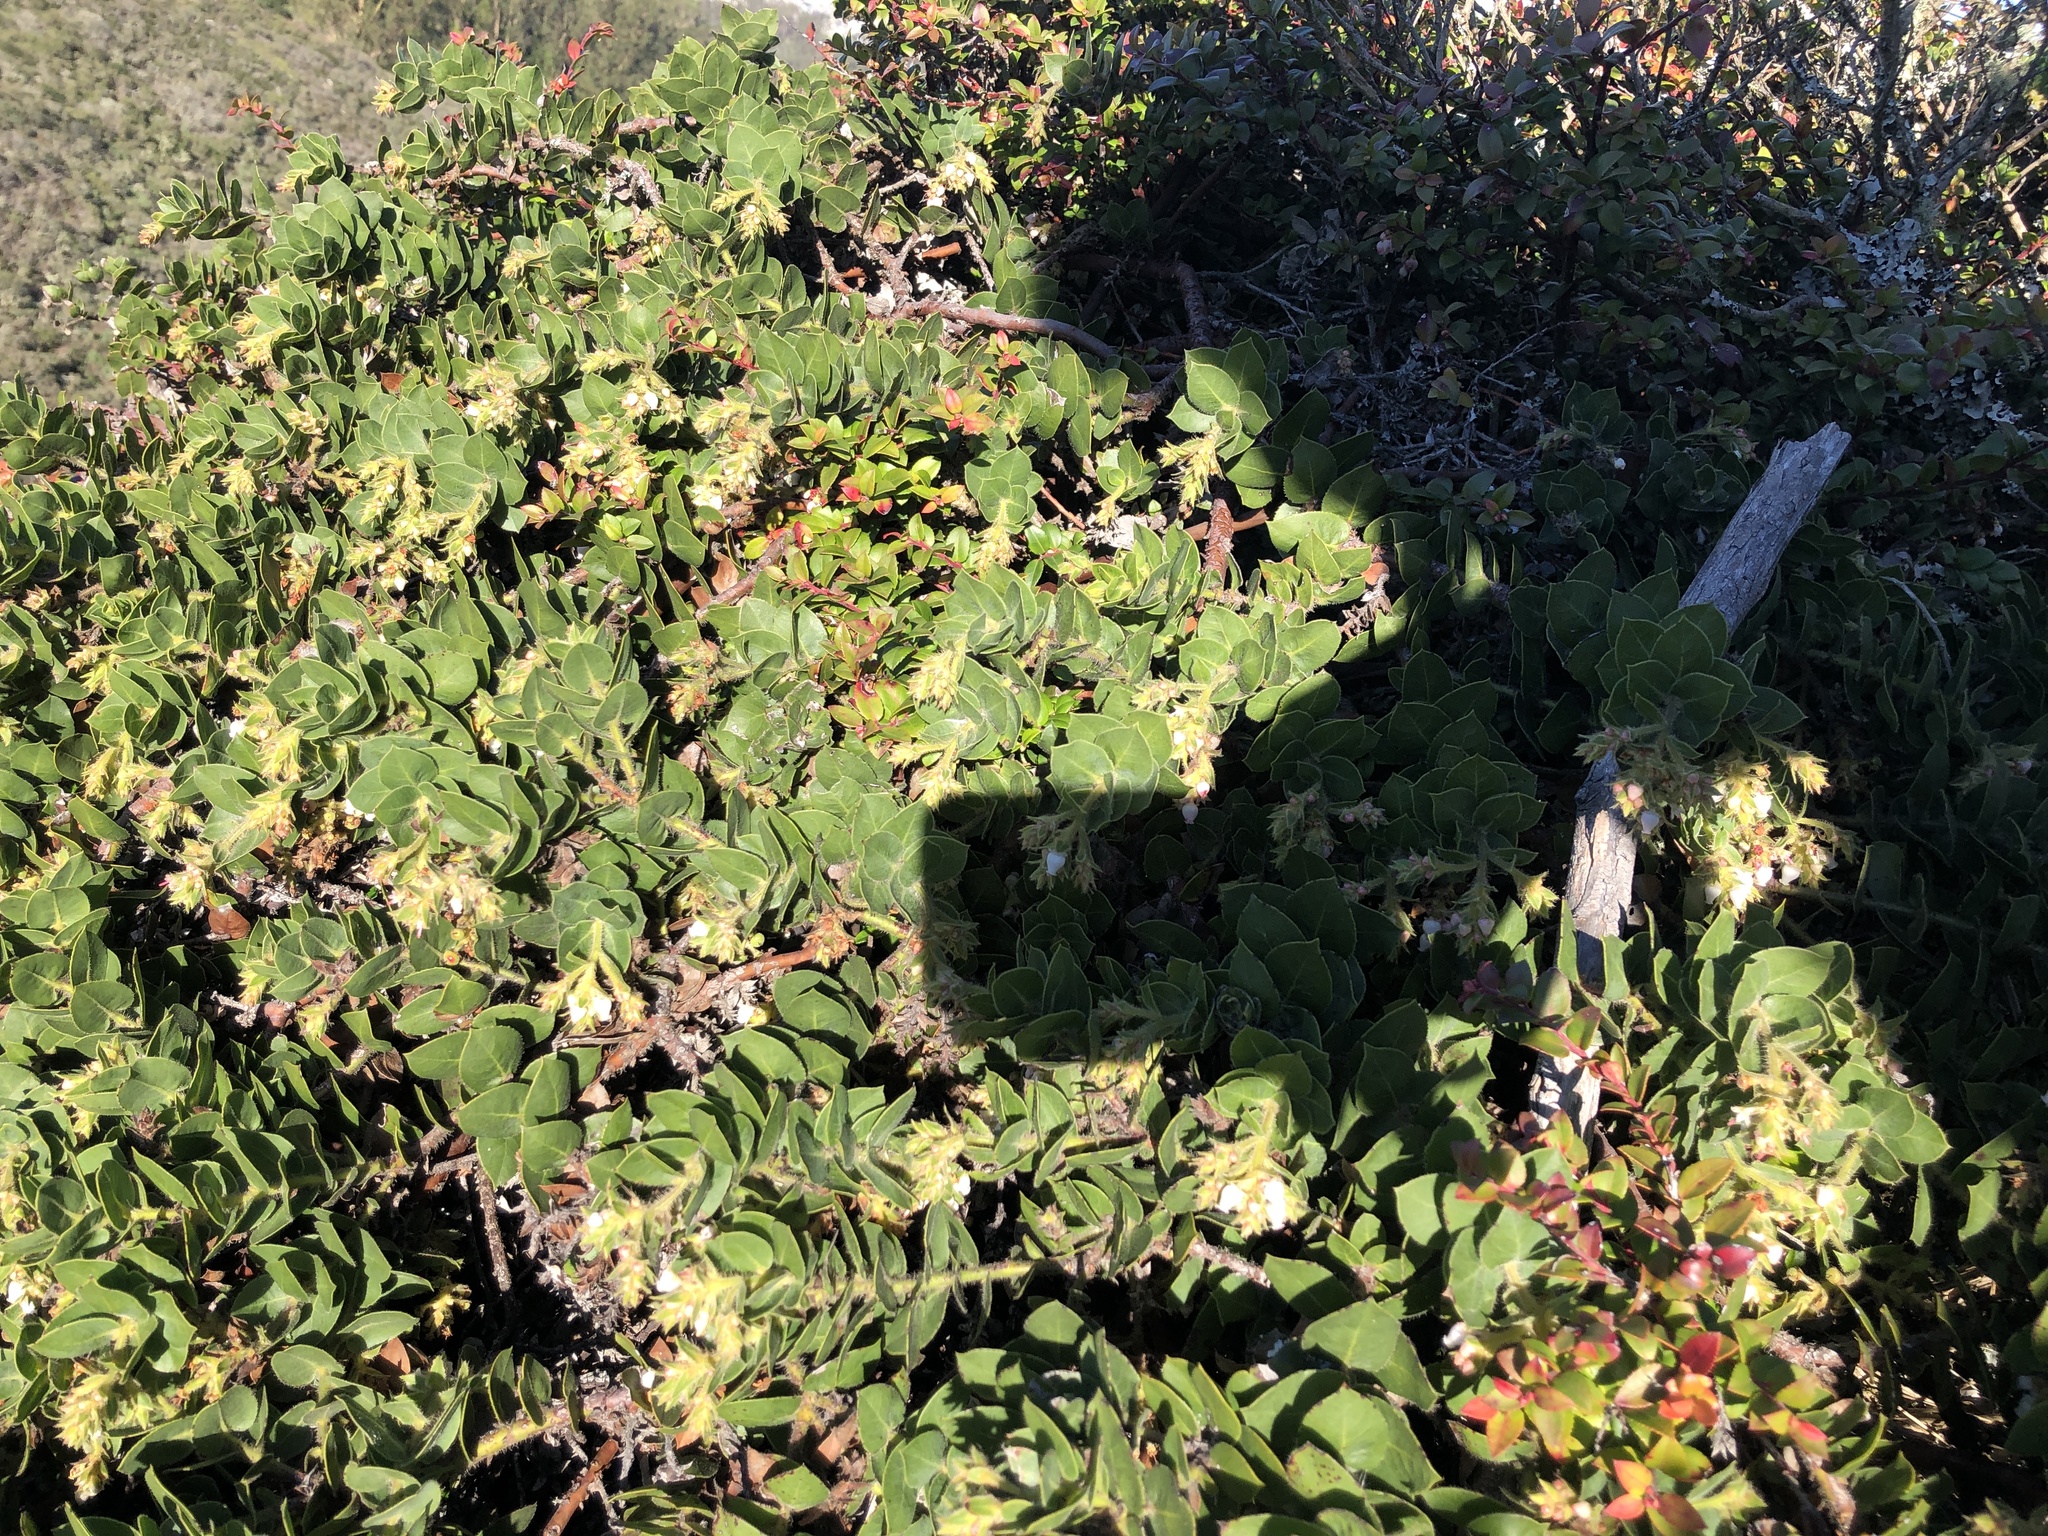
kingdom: Plantae
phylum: Tracheophyta
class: Magnoliopsida
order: Ericales
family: Ericaceae
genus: Arctostaphylos
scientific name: Arctostaphylos imbricata
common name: San bruno mountain manzanita
